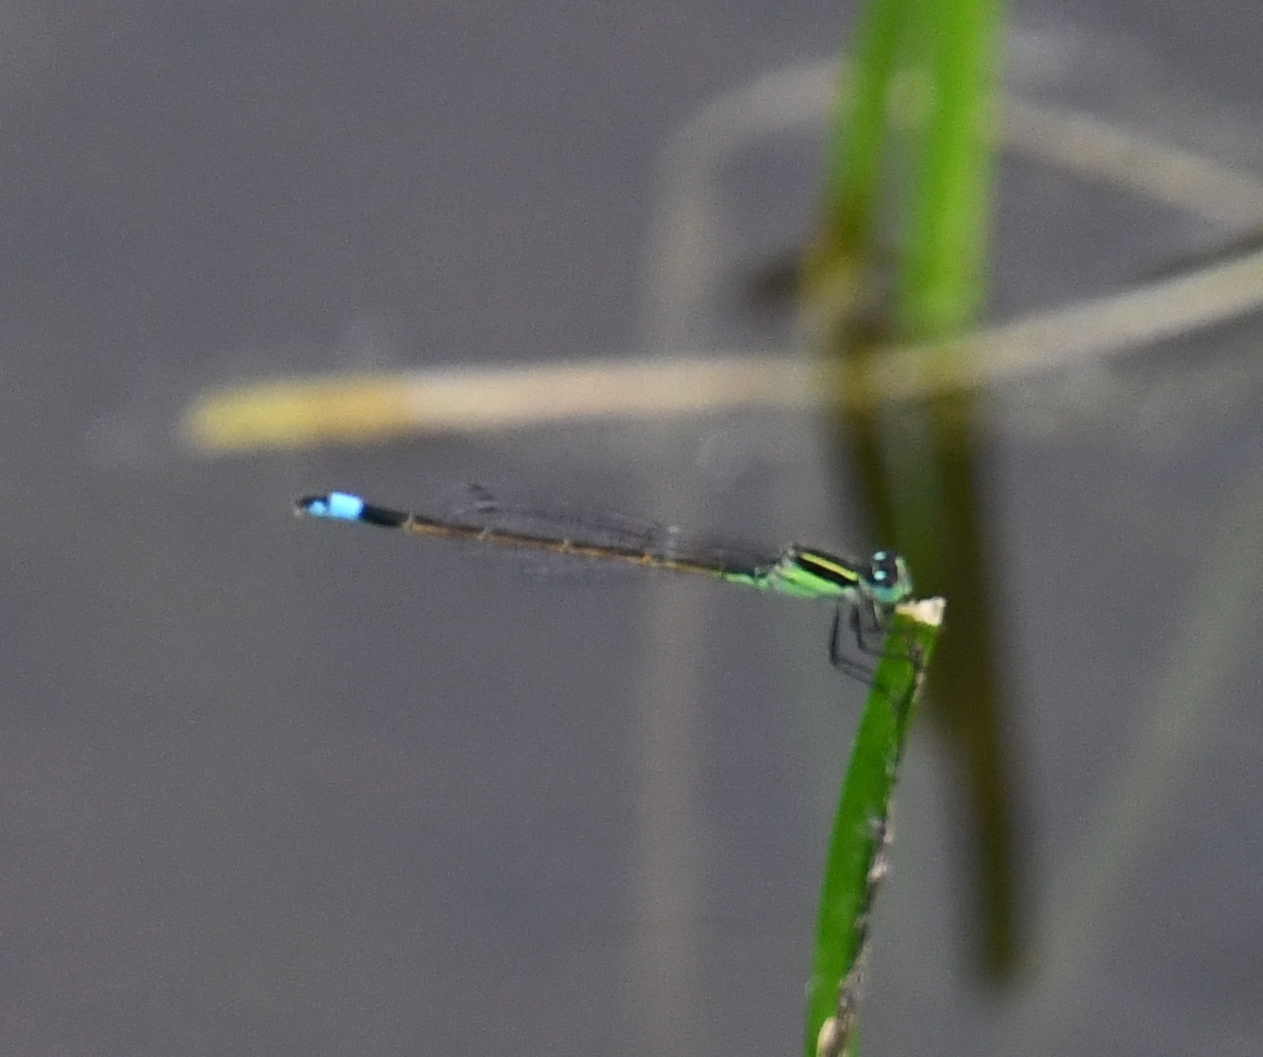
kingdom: Animalia
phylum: Arthropoda
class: Insecta
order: Odonata
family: Coenagrionidae
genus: Ischnura
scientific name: Ischnura ramburii
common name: Rambur's forktail
